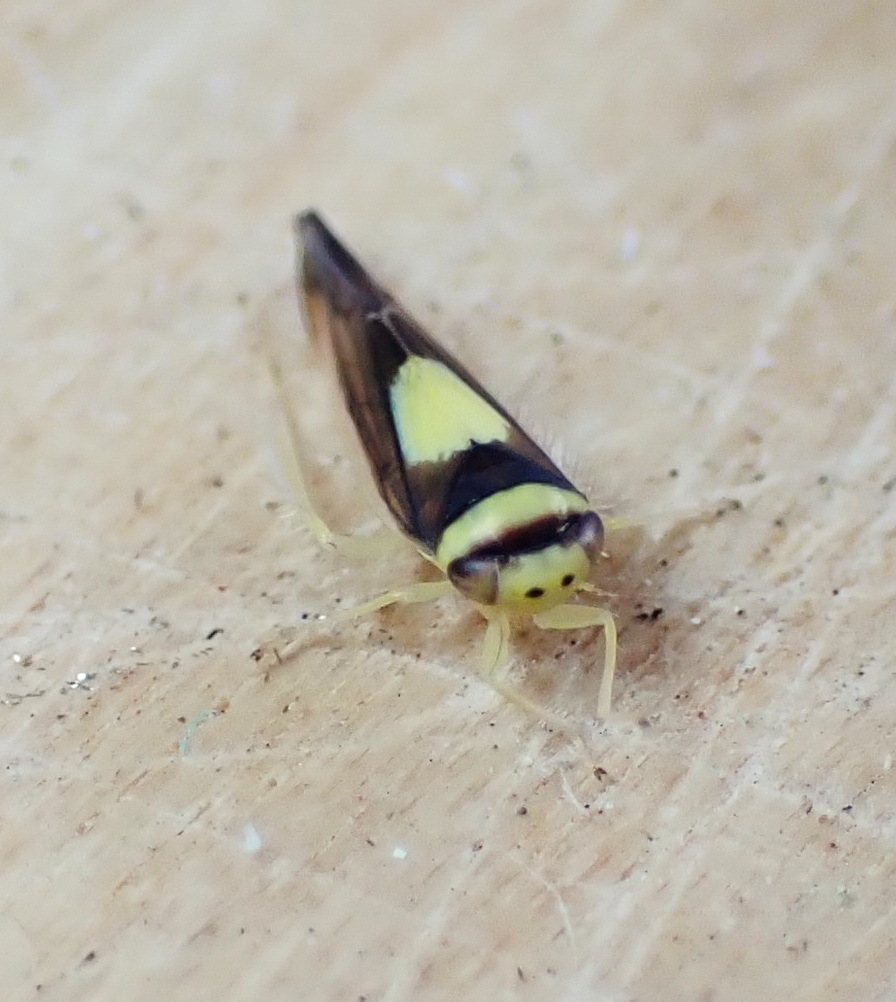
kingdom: Animalia
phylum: Arthropoda
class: Insecta
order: Hemiptera
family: Cicadellidae
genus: Colladonus
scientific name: Colladonus clitellarius
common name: The saddleback leafhopper
